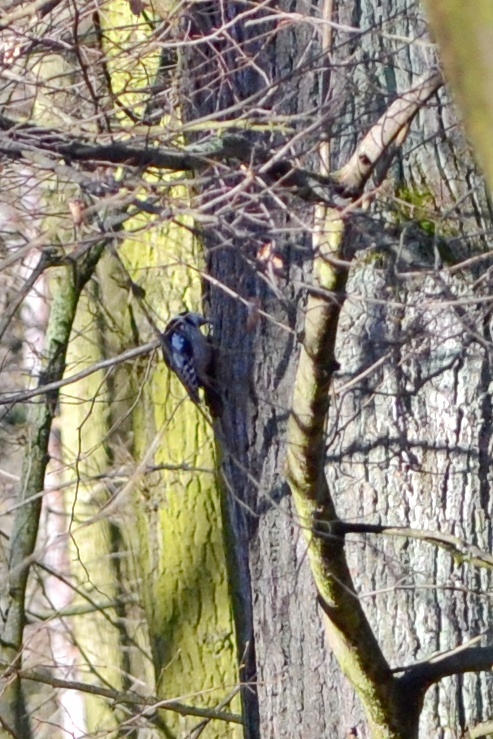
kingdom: Animalia
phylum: Chordata
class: Aves
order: Piciformes
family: Picidae
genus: Dendrocoptes
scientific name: Dendrocoptes medius
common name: Middle spotted woodpecker
